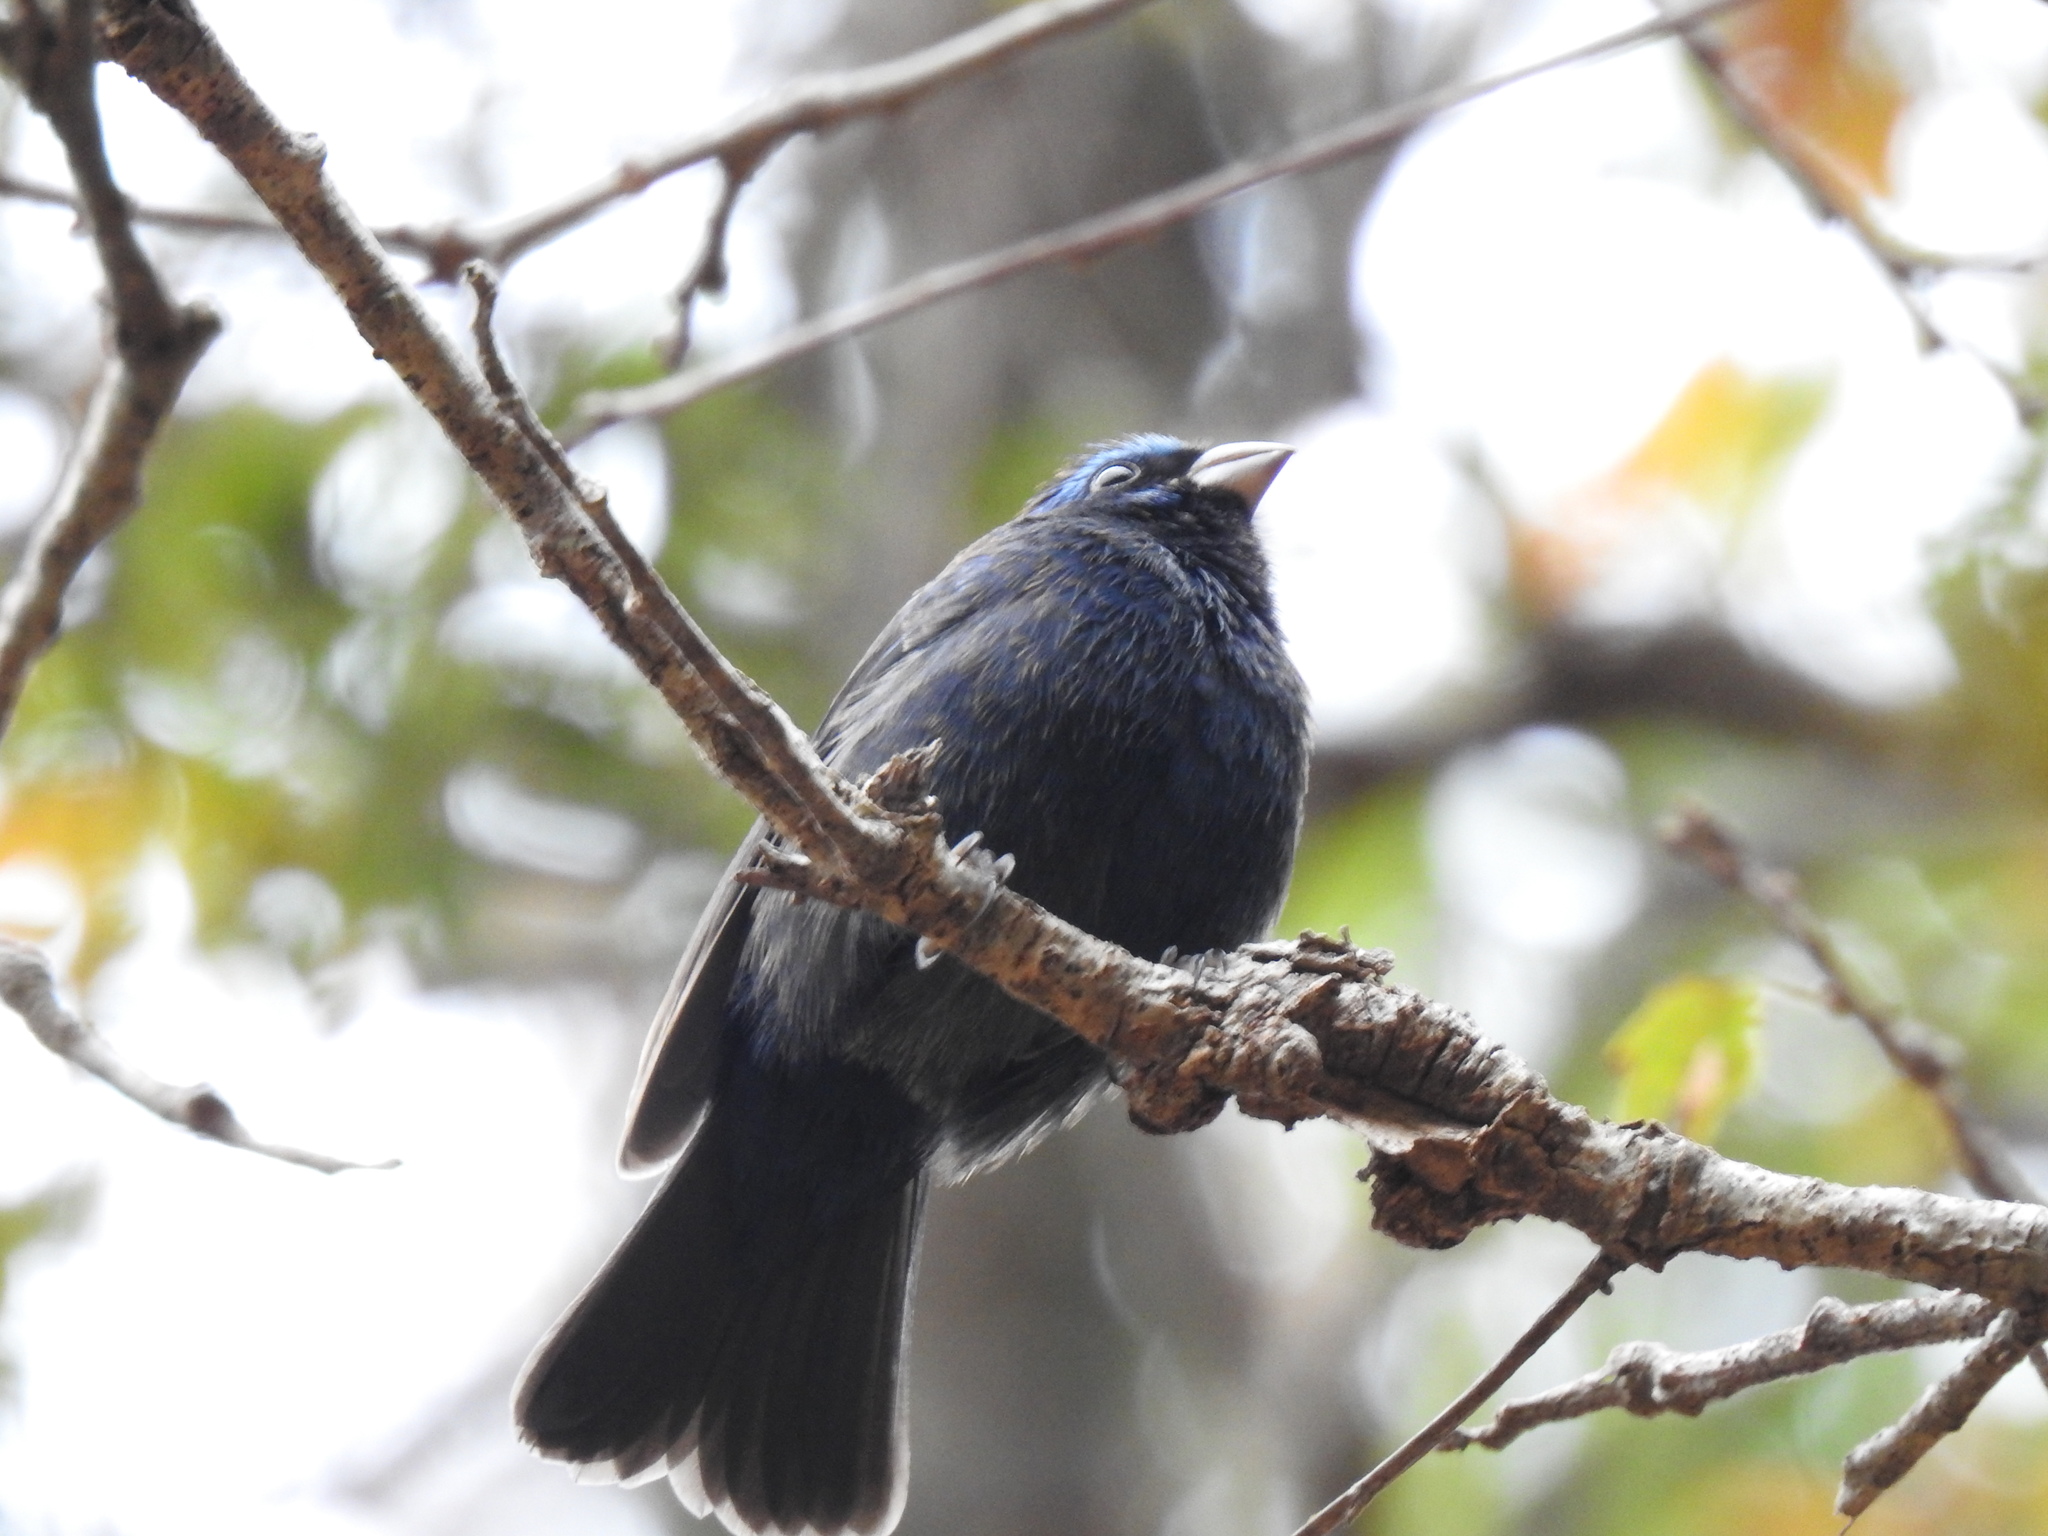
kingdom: Animalia
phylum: Chordata
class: Aves
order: Passeriformes
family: Cardinalidae
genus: Cyanocompsa
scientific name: Cyanocompsa parellina
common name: Blue bunting
